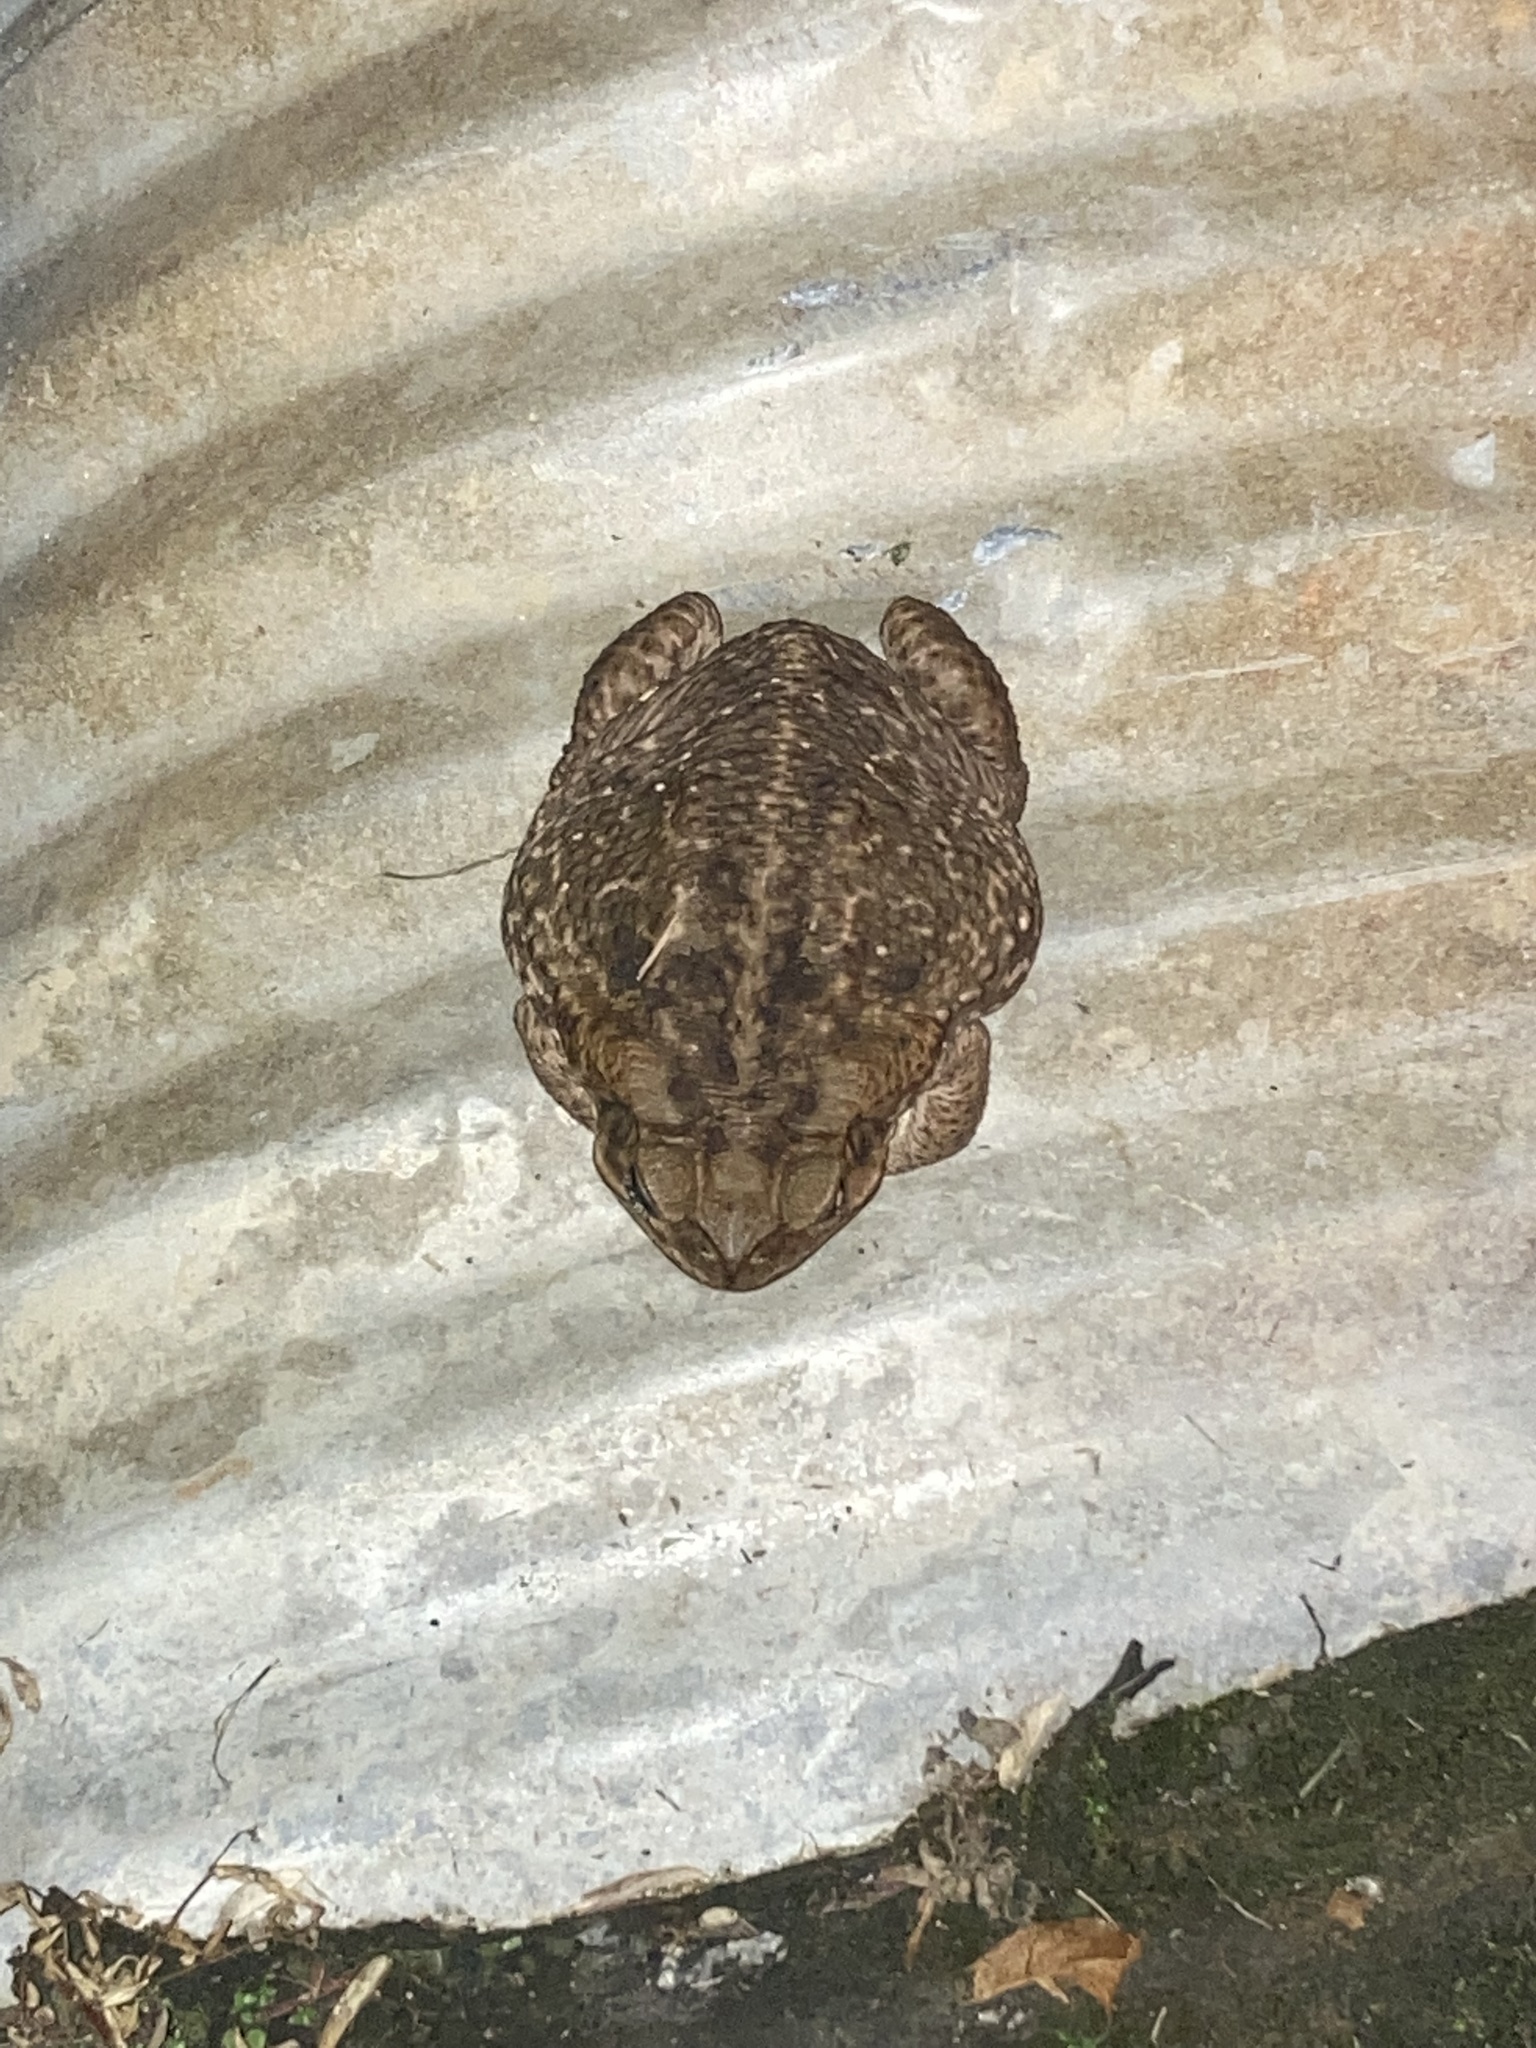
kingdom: Animalia
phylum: Chordata
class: Amphibia
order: Anura
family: Bufonidae
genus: Rhinella
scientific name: Rhinella marina
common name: Cane toad
